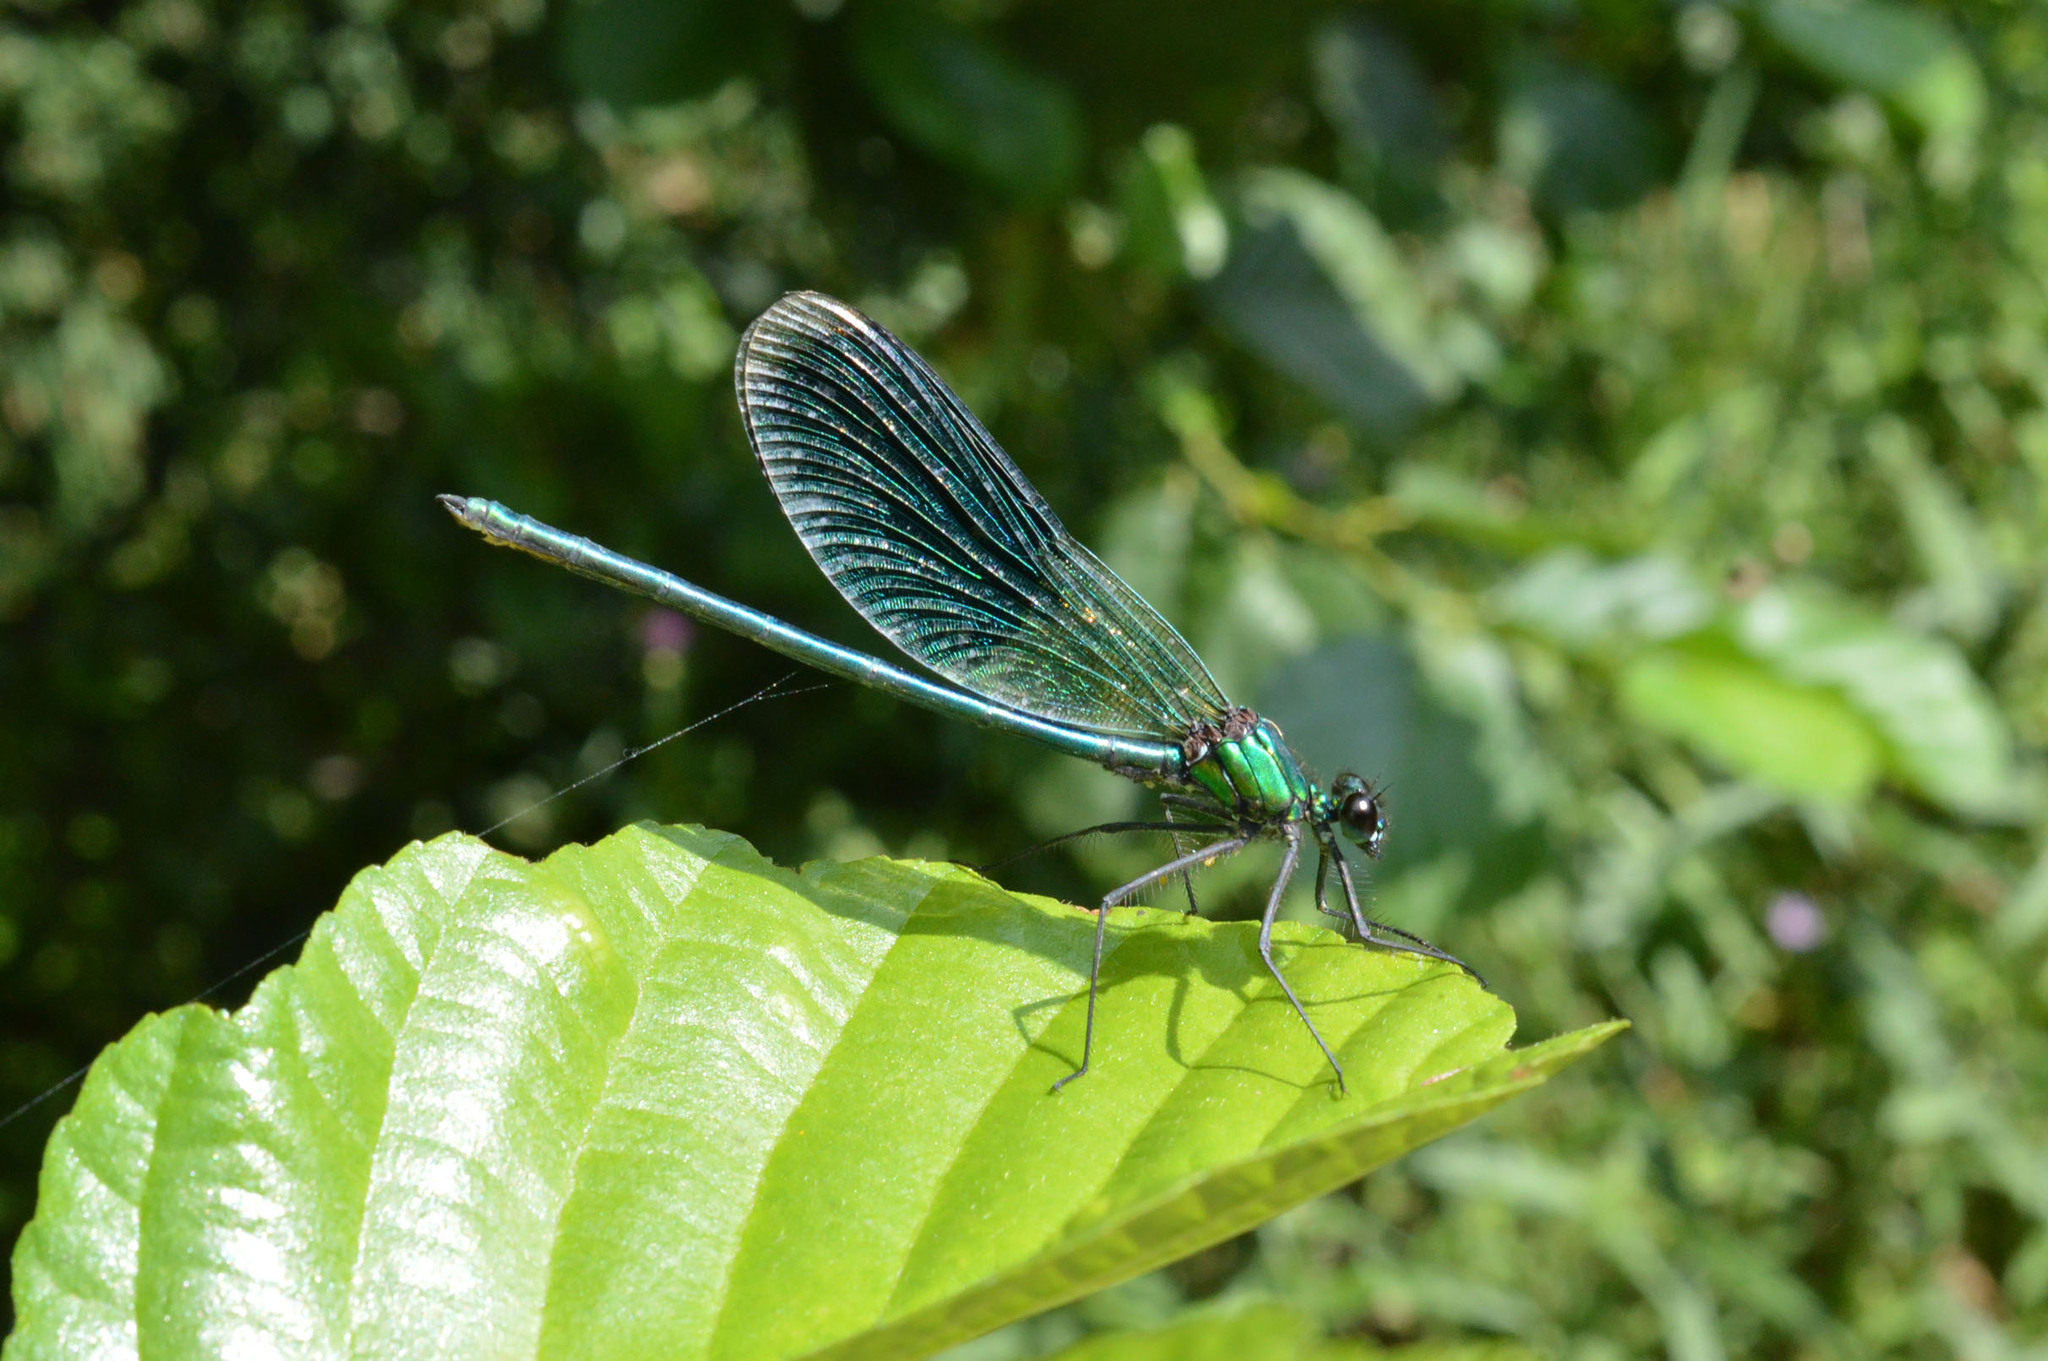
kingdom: Animalia
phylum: Arthropoda
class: Insecta
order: Odonata
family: Calopterygidae
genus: Calopteryx
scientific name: Calopteryx splendens
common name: Banded demoiselle
